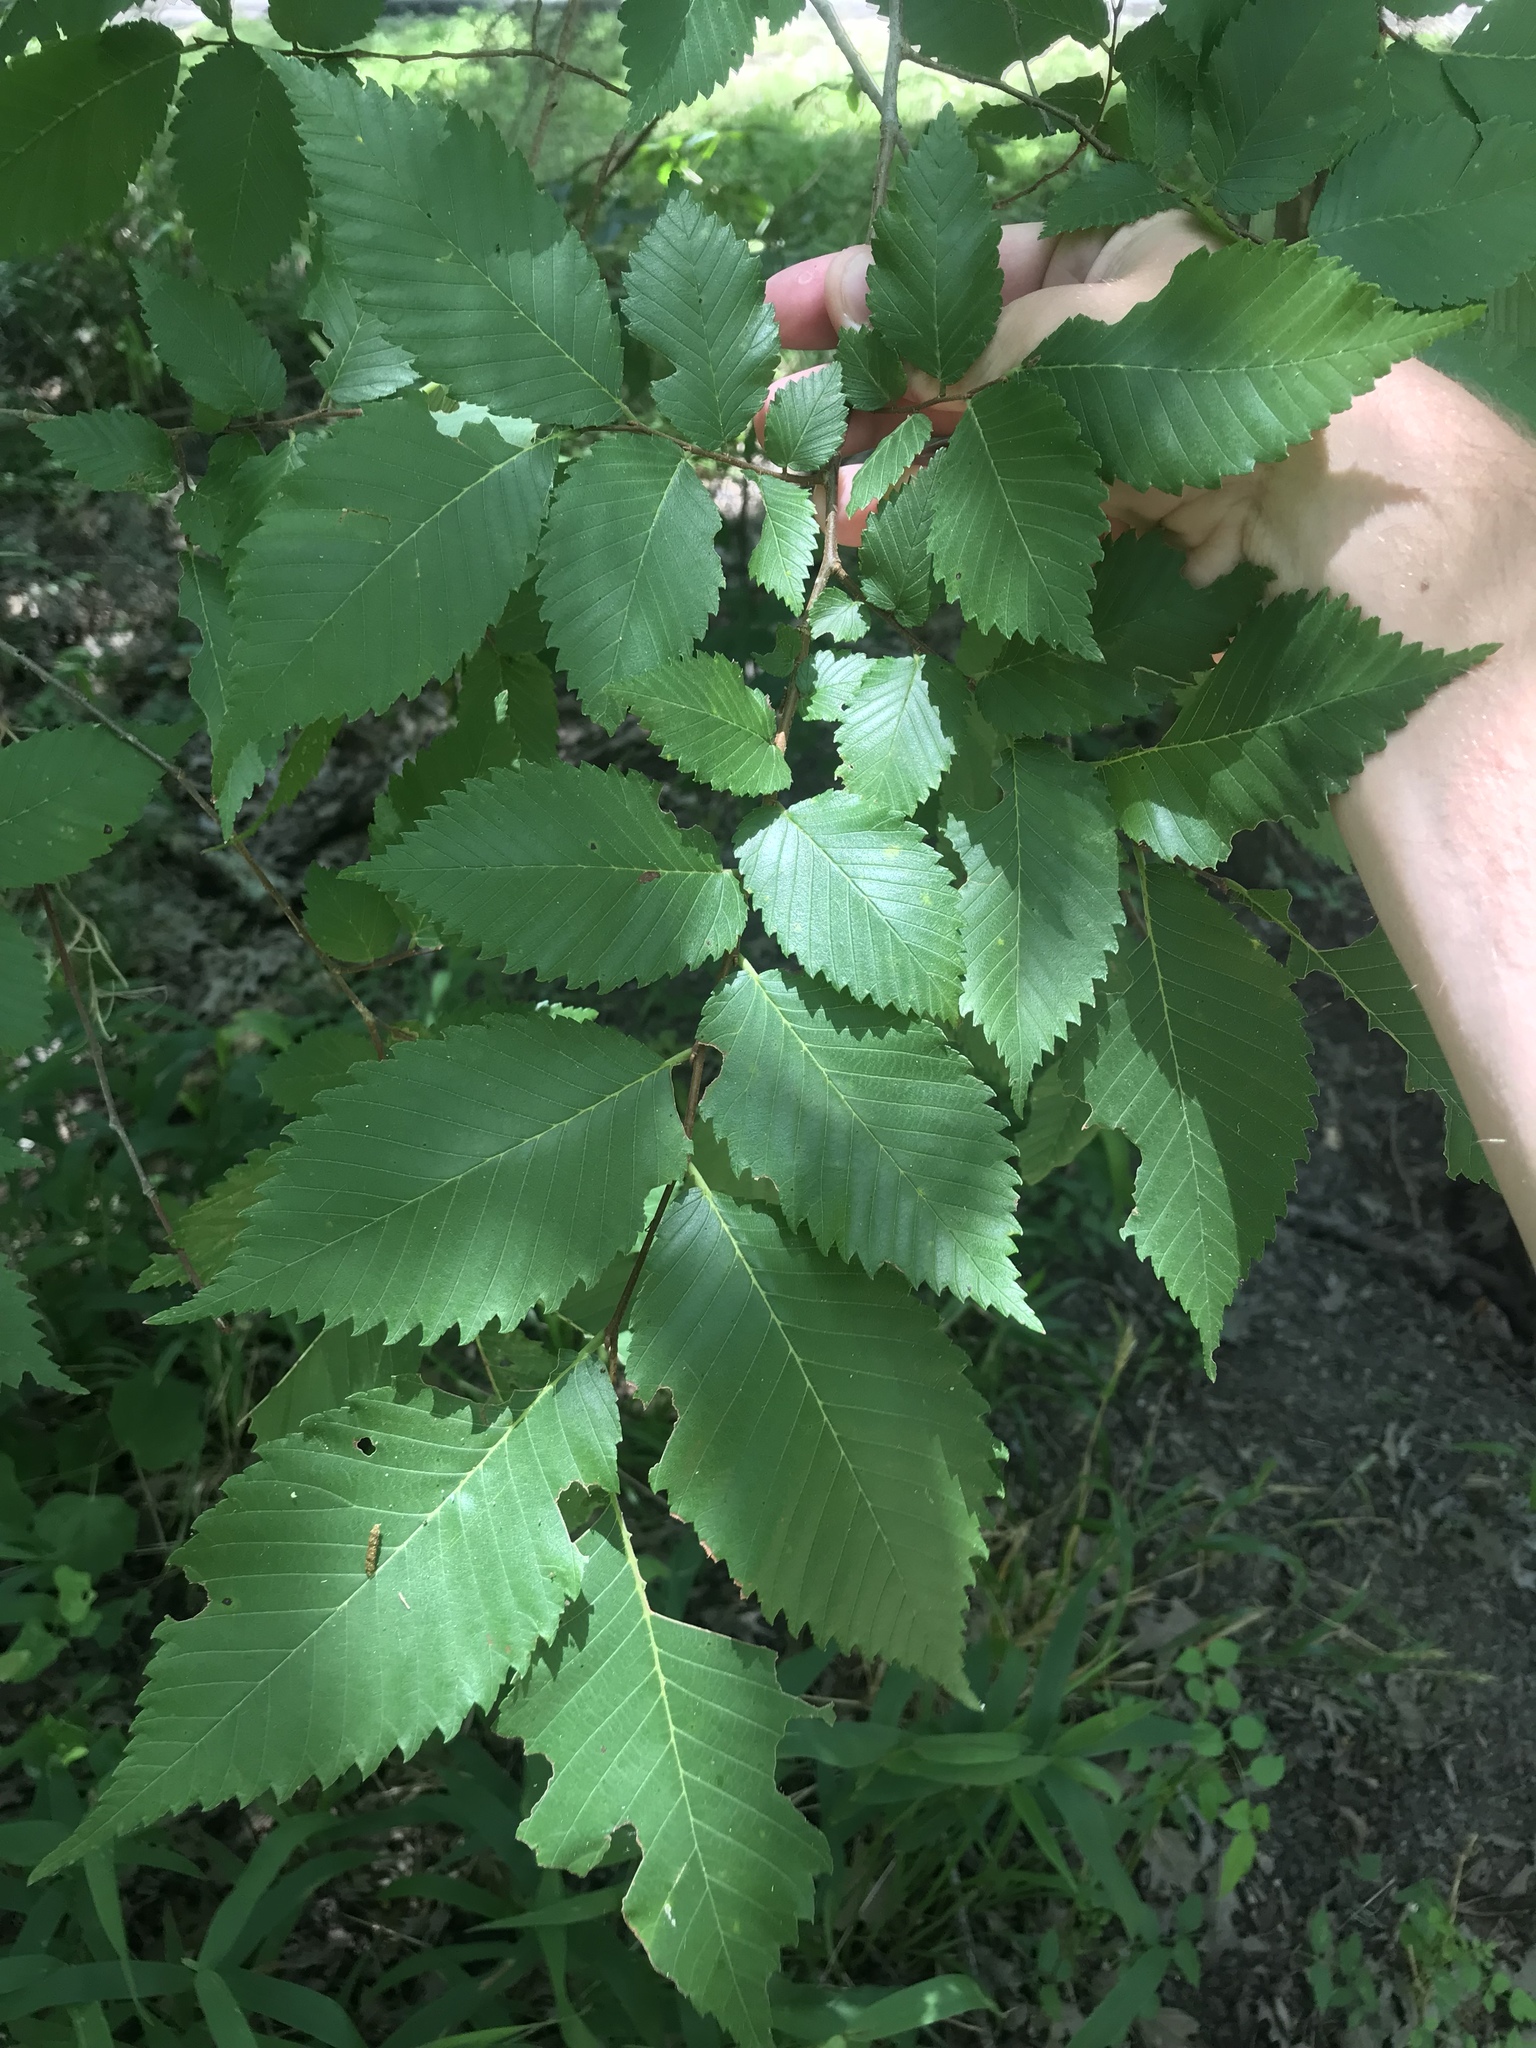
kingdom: Plantae
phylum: Tracheophyta
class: Magnoliopsida
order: Rosales
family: Ulmaceae
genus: Ulmus
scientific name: Ulmus americana
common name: American elm
